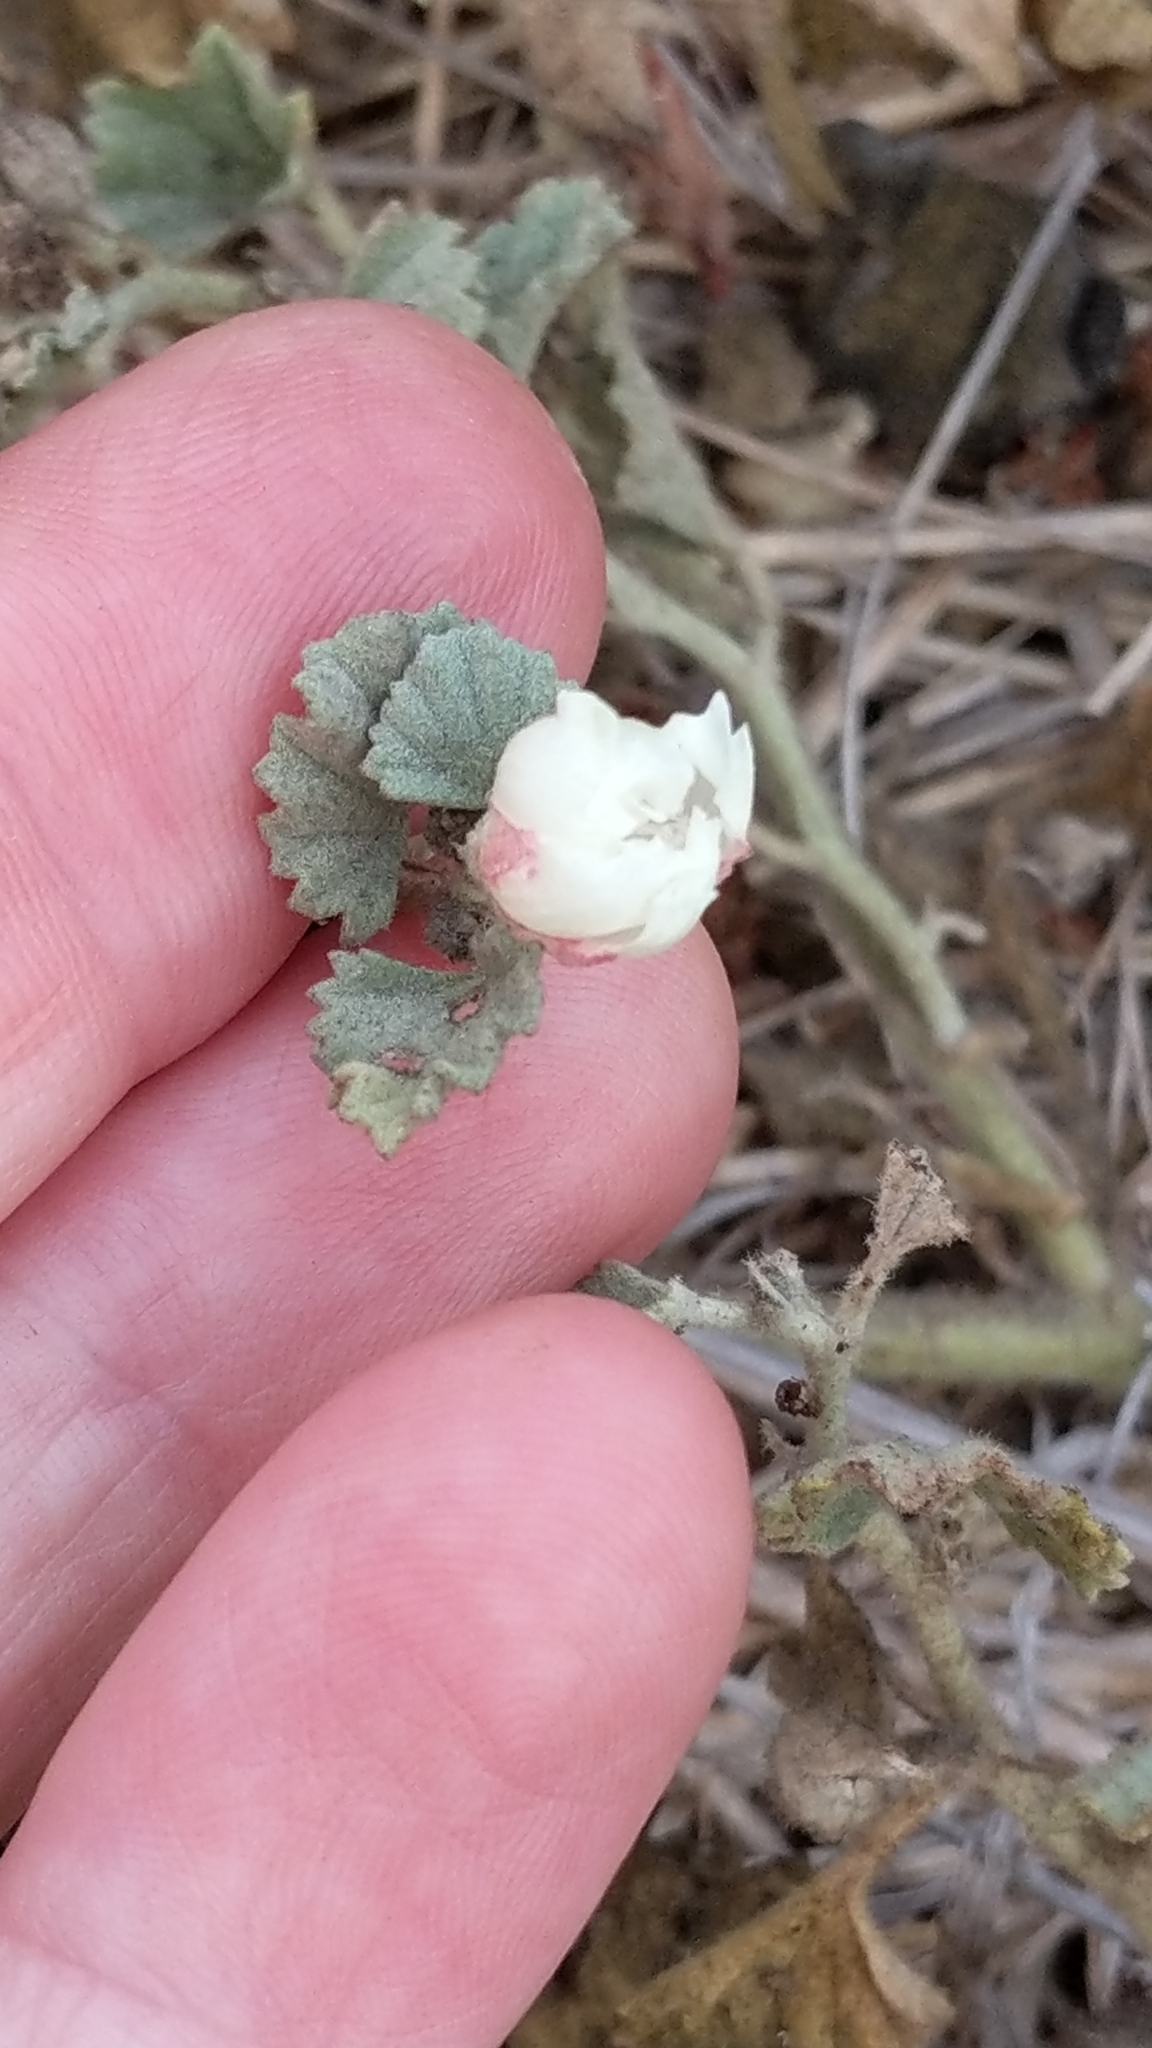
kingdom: Plantae
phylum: Tracheophyta
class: Magnoliopsida
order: Malvales
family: Malvaceae
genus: Malvella
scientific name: Malvella leprosa
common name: Alkali-mallow
